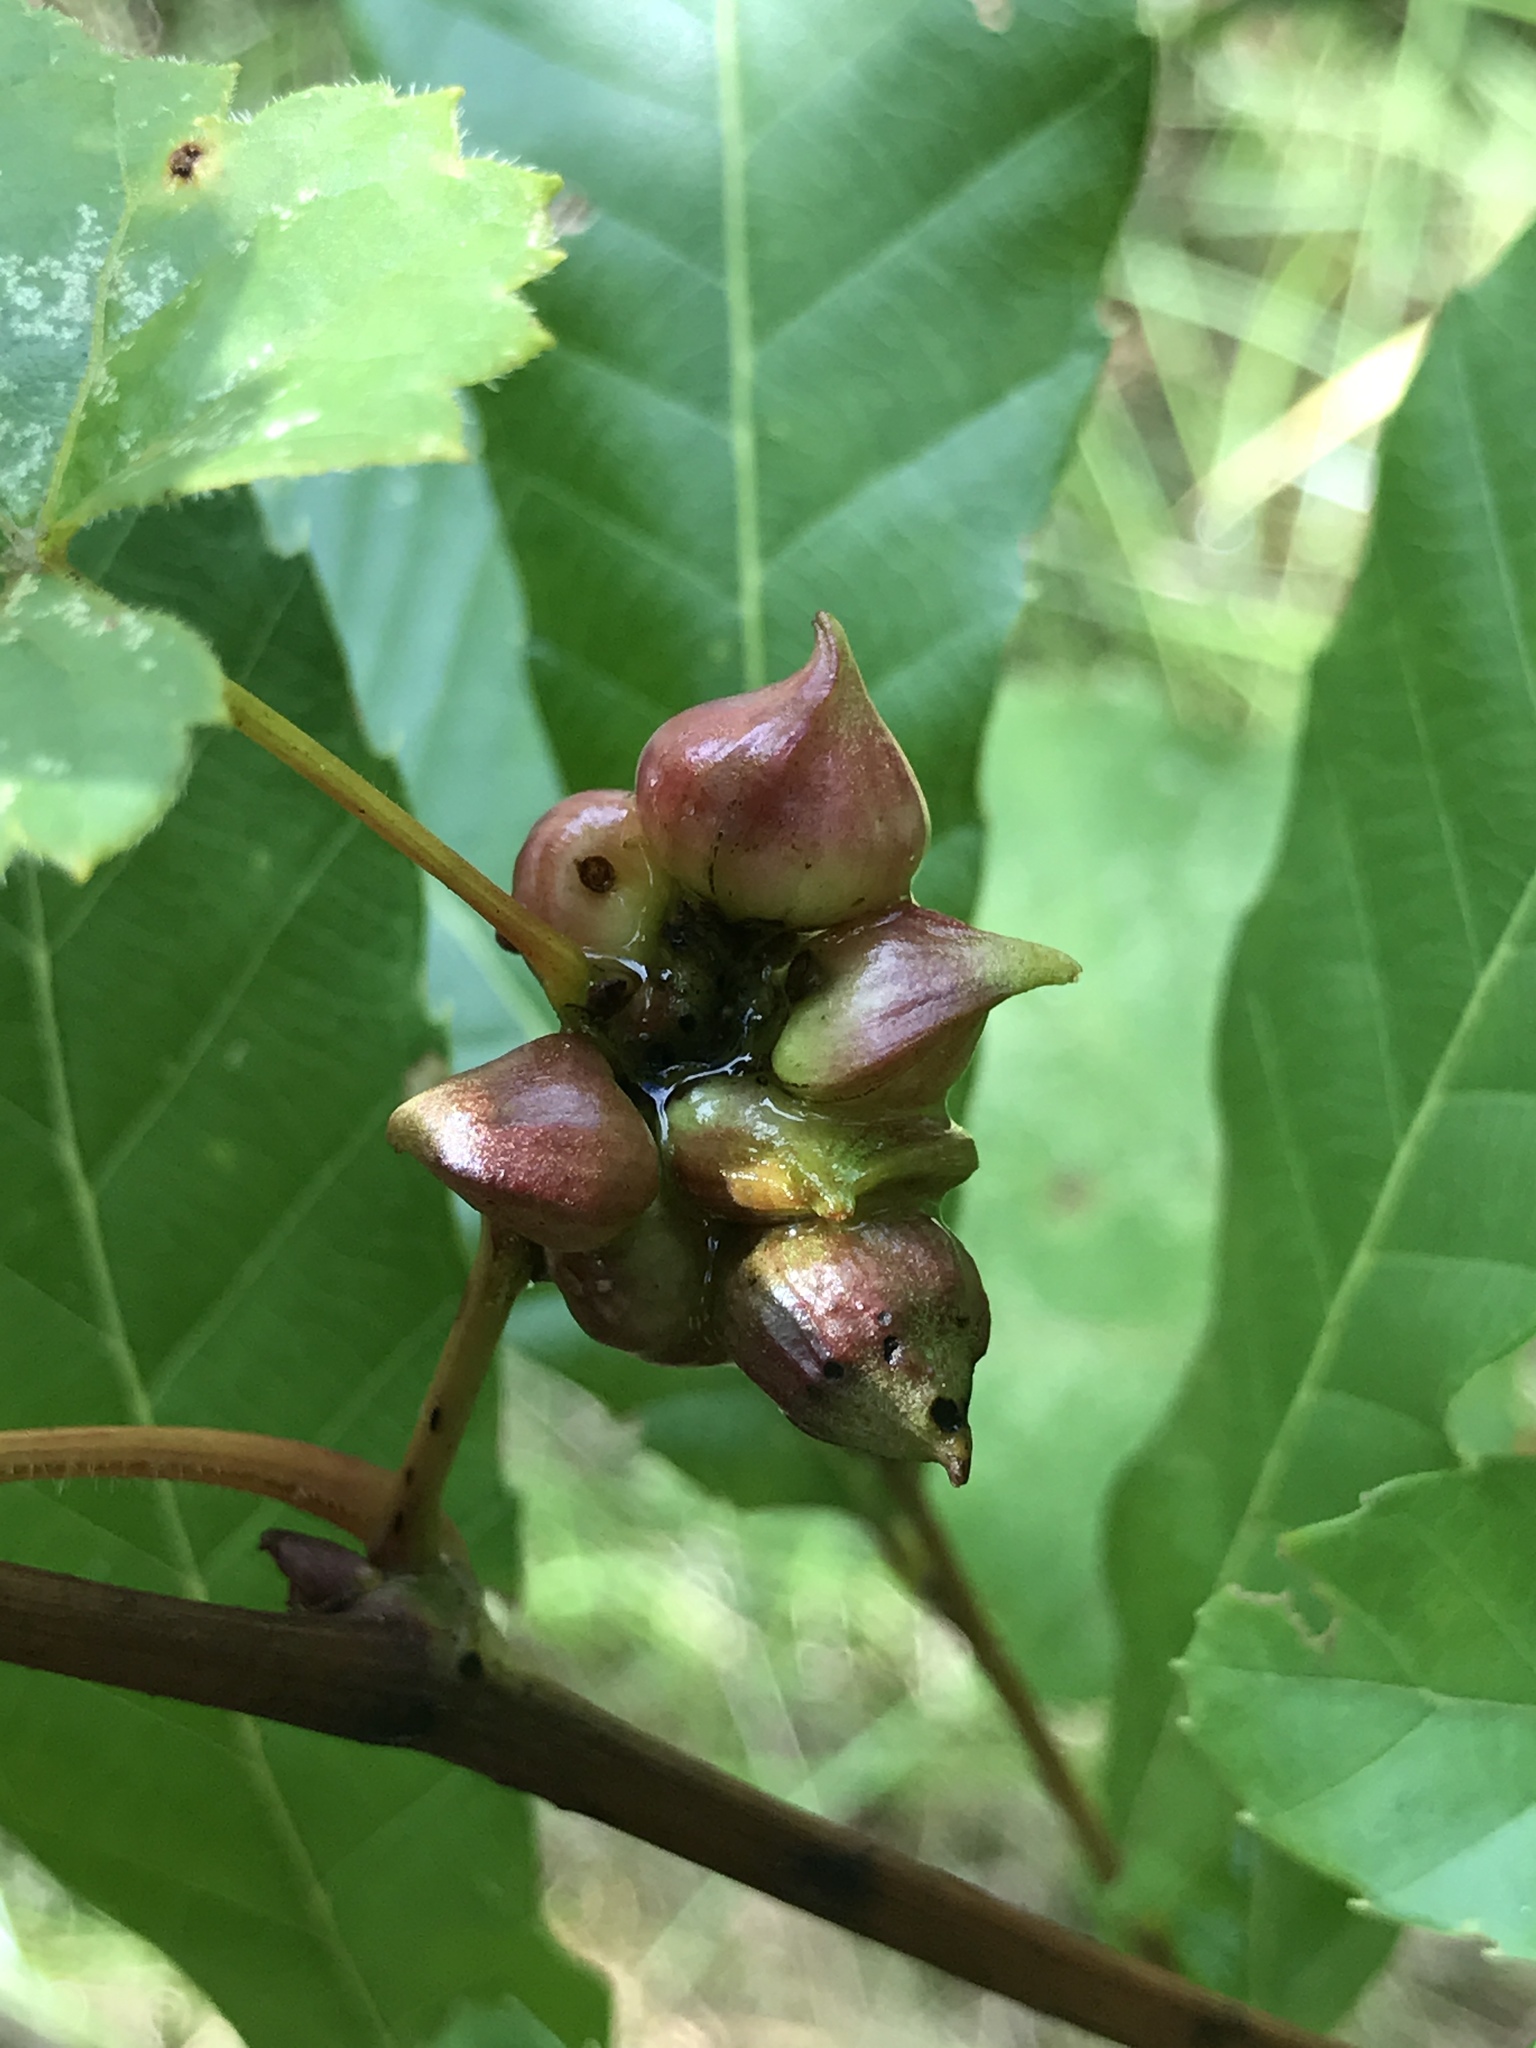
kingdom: Animalia
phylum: Arthropoda
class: Insecta
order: Diptera
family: Cecidomyiidae
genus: Ampelomyia
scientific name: Ampelomyia vitiscoryloides
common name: Grape filbert gall
